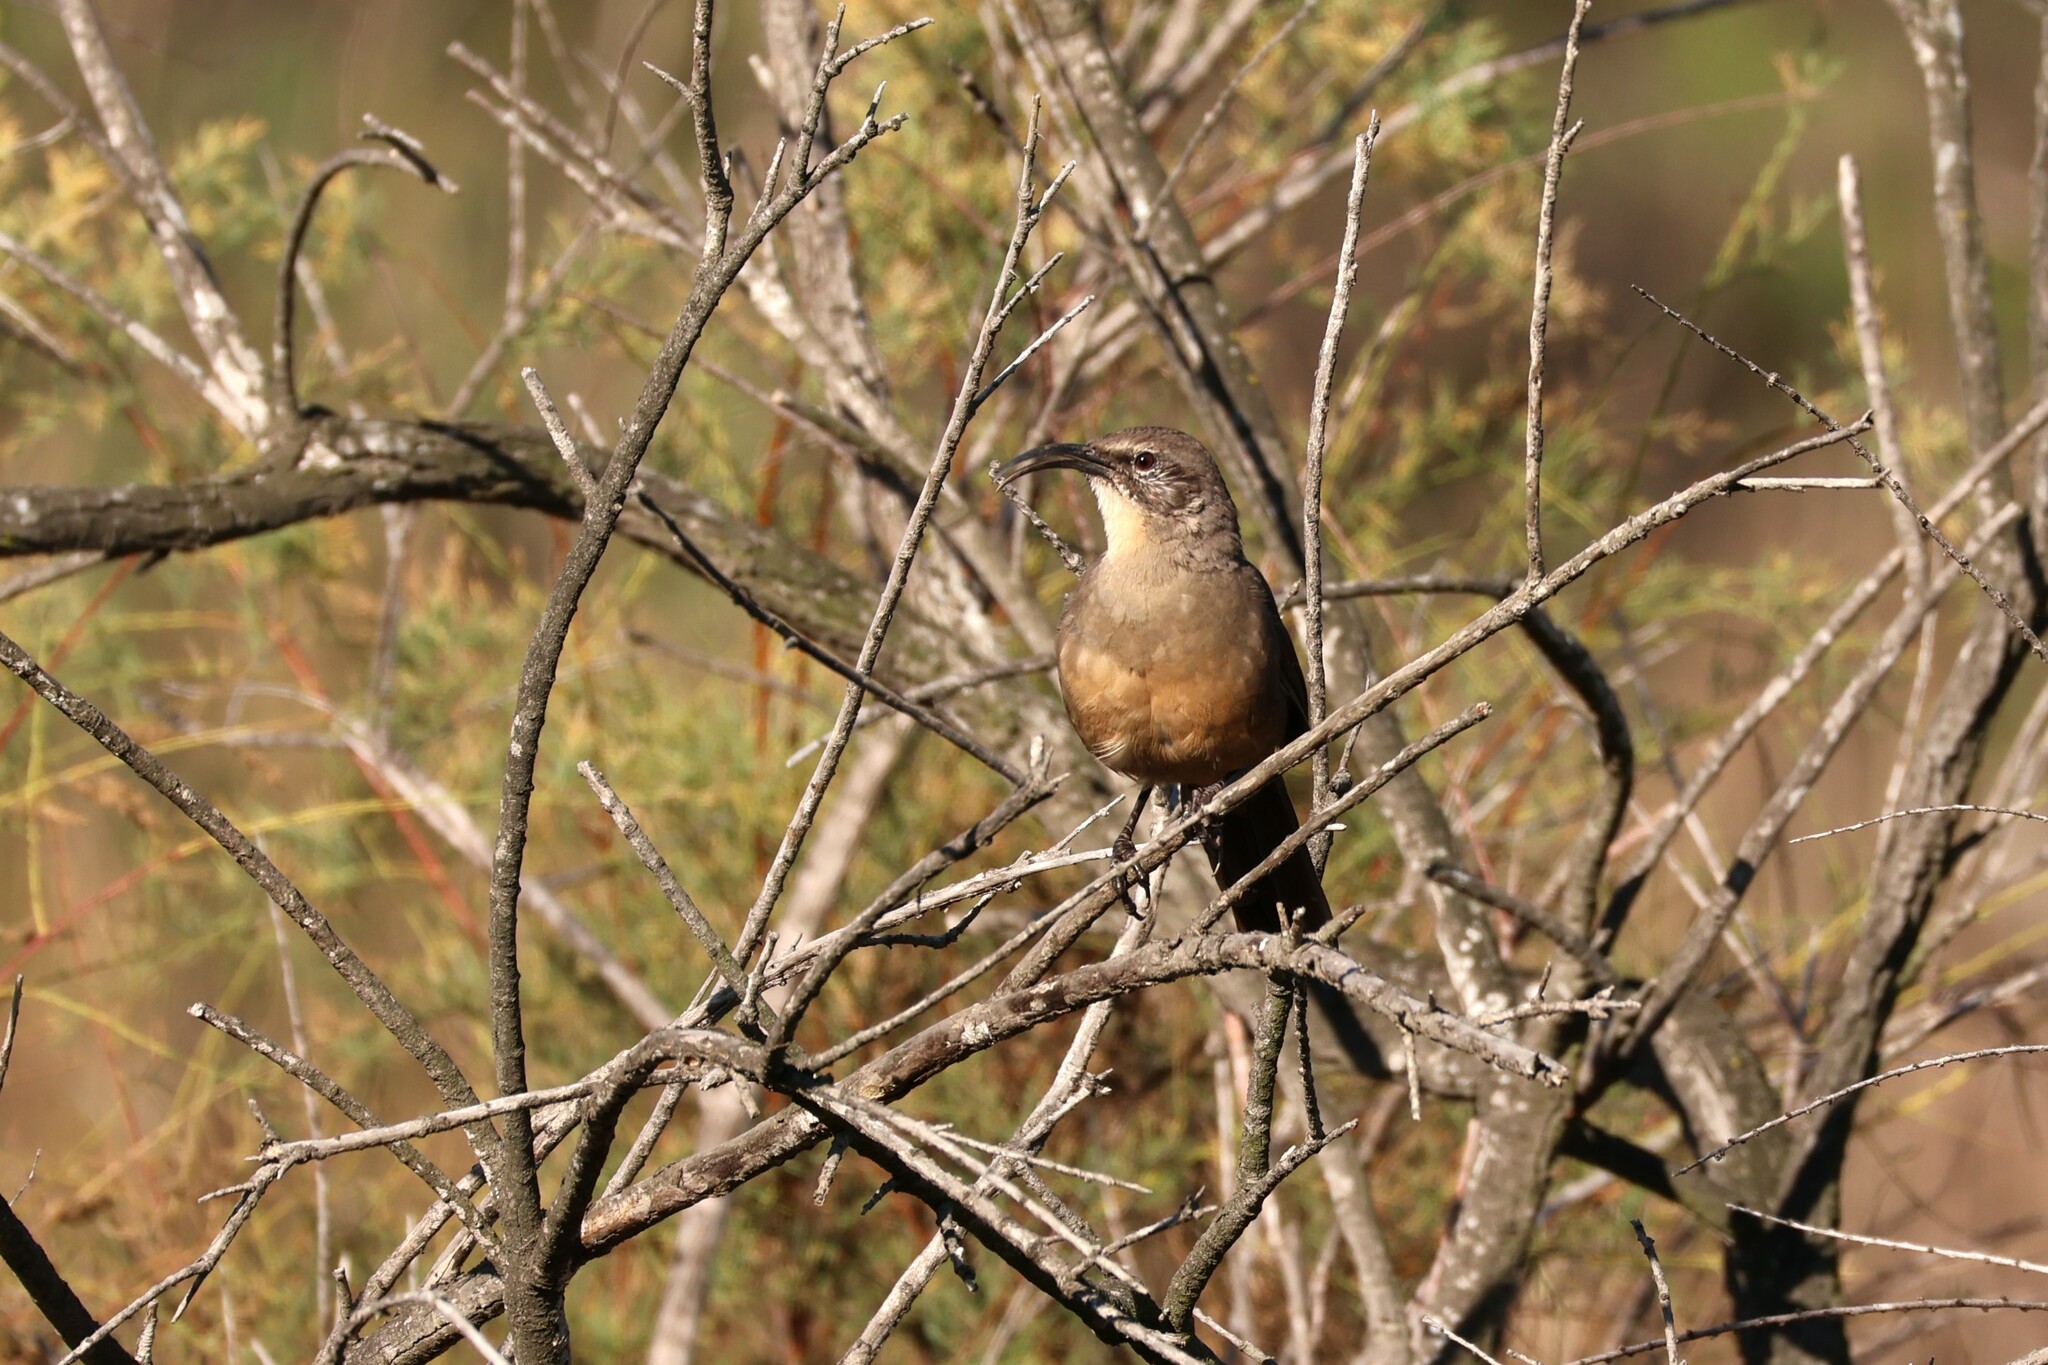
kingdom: Animalia
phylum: Chordata
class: Aves
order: Passeriformes
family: Mimidae
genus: Toxostoma
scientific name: Toxostoma redivivum
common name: California thrasher
